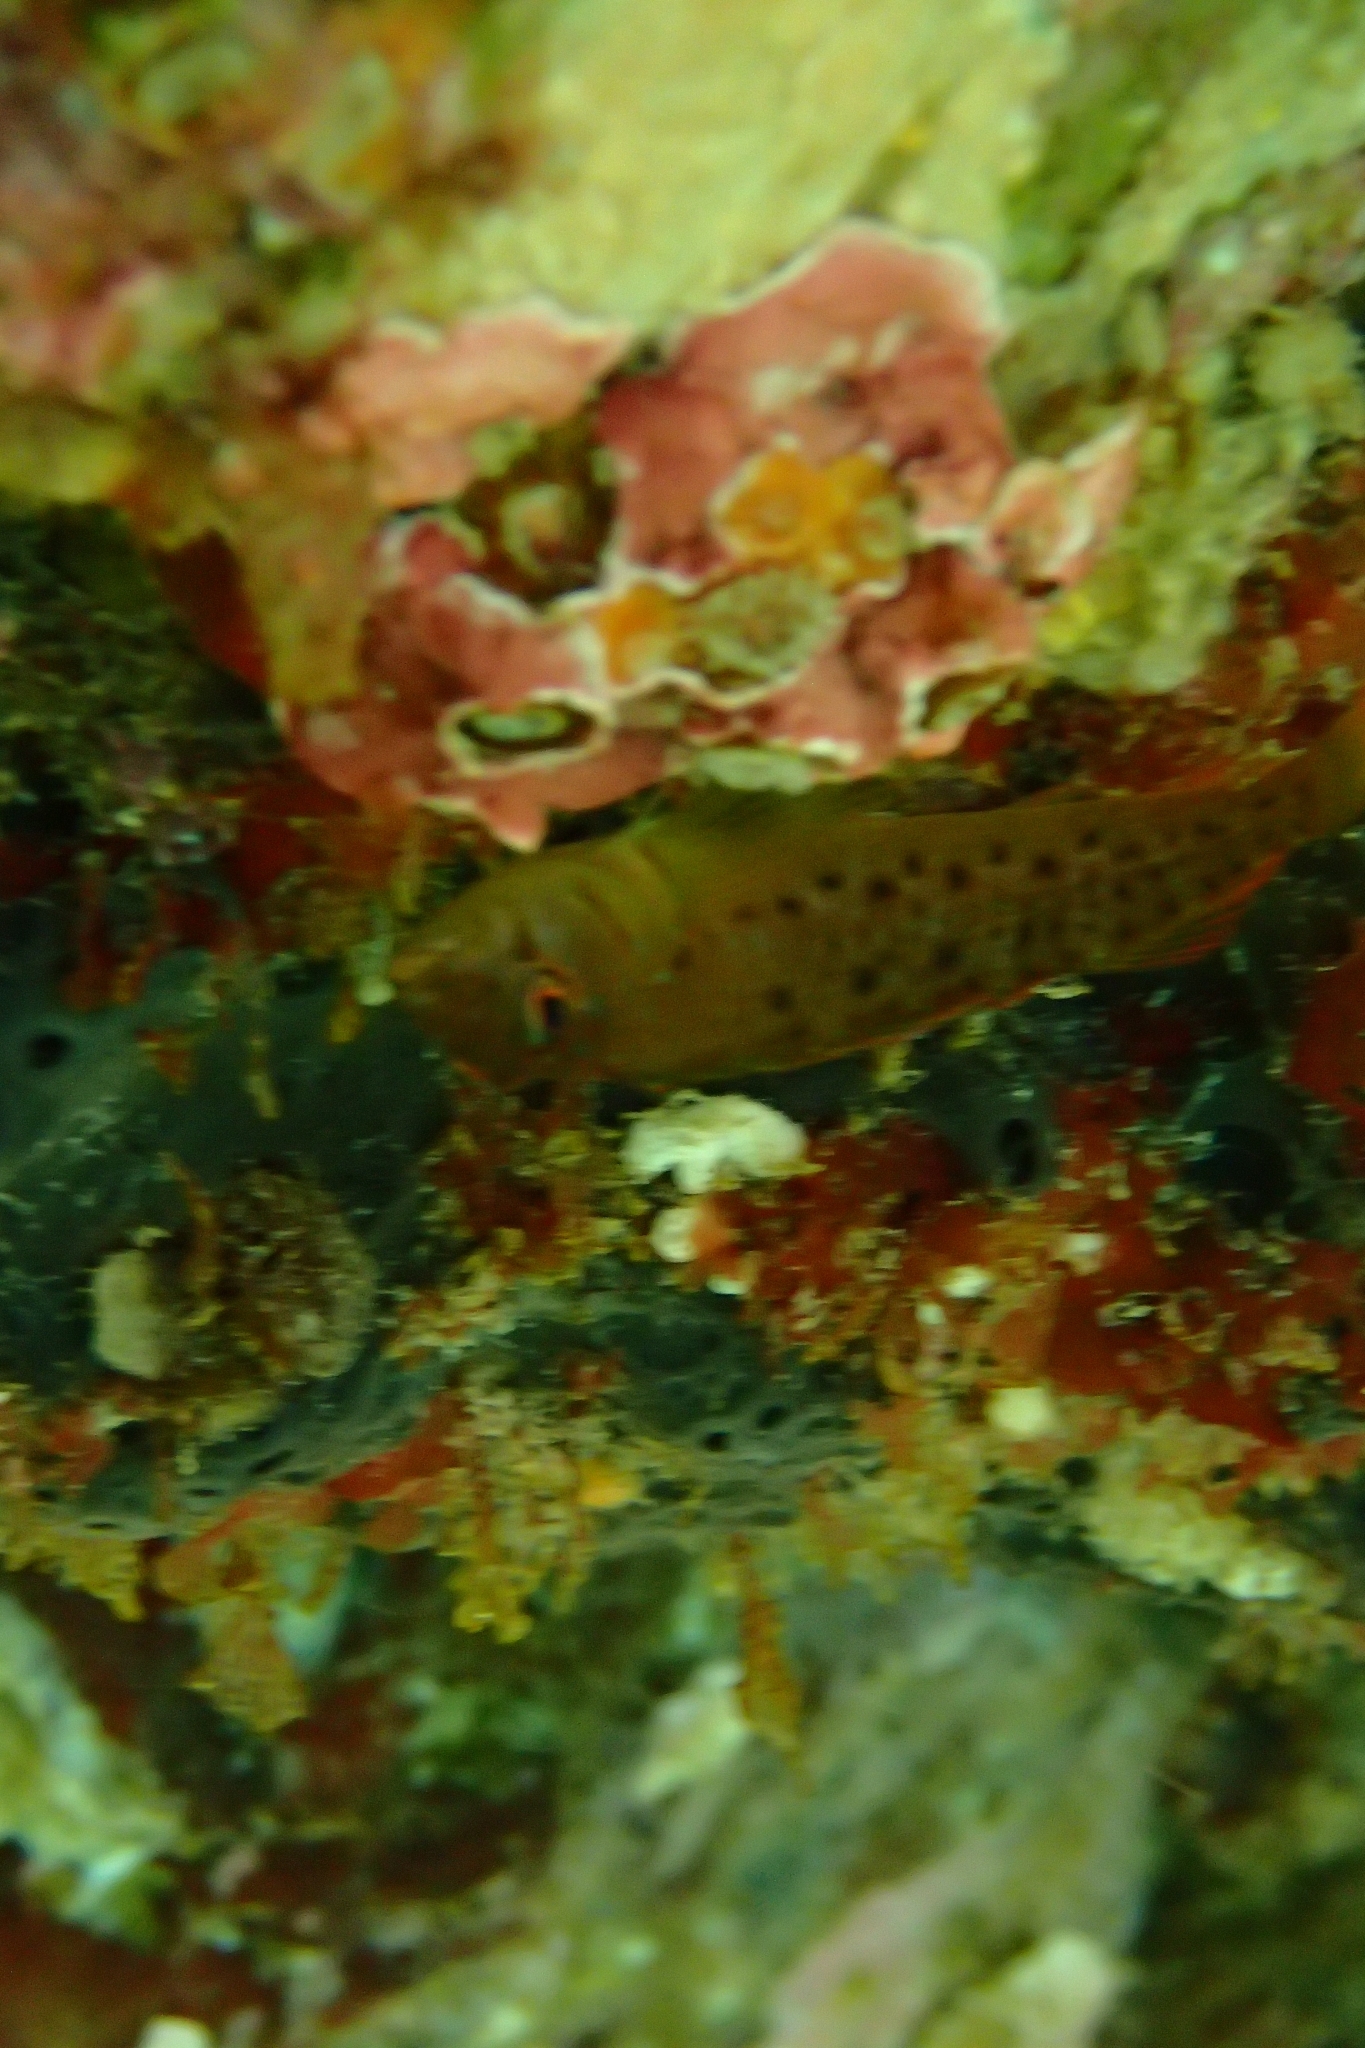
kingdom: Animalia
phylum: Chordata
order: Perciformes
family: Tripterygiidae
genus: Notoclinops
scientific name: Notoclinops yaldwyni
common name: Yaldwyn's triplefin
